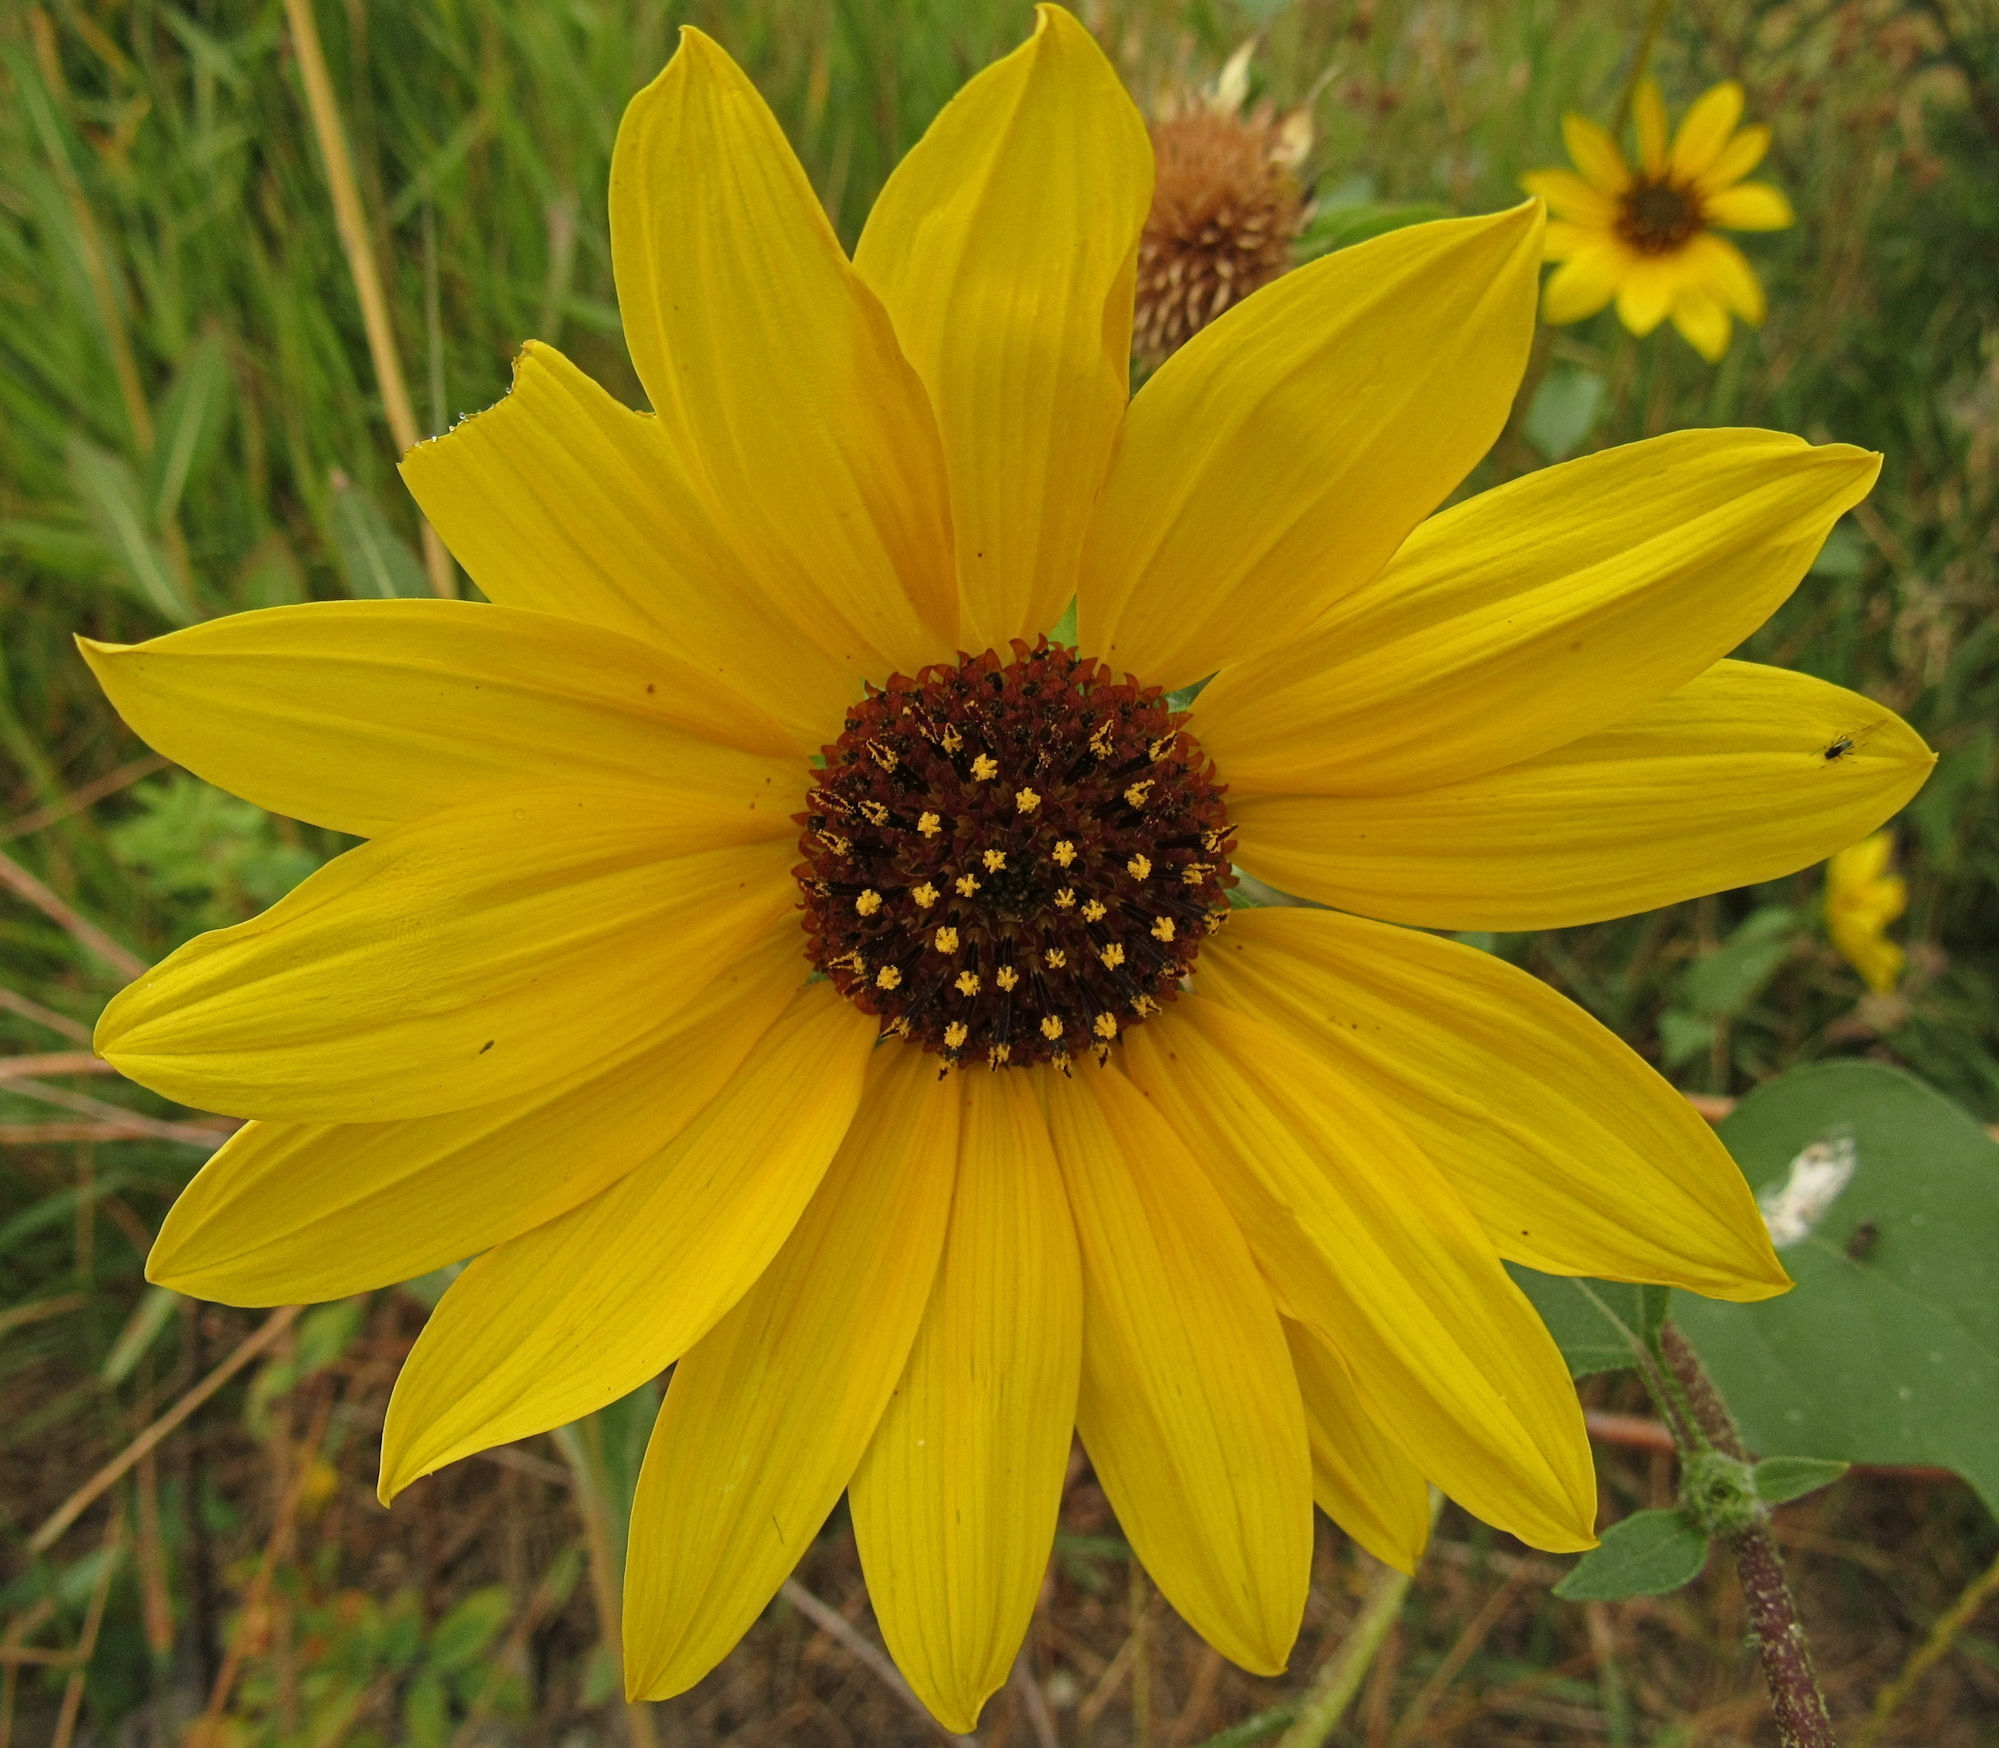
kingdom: Plantae
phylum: Tracheophyta
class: Magnoliopsida
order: Asterales
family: Asteraceae
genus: Helianthus
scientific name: Helianthus annuus
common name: Sunflower
